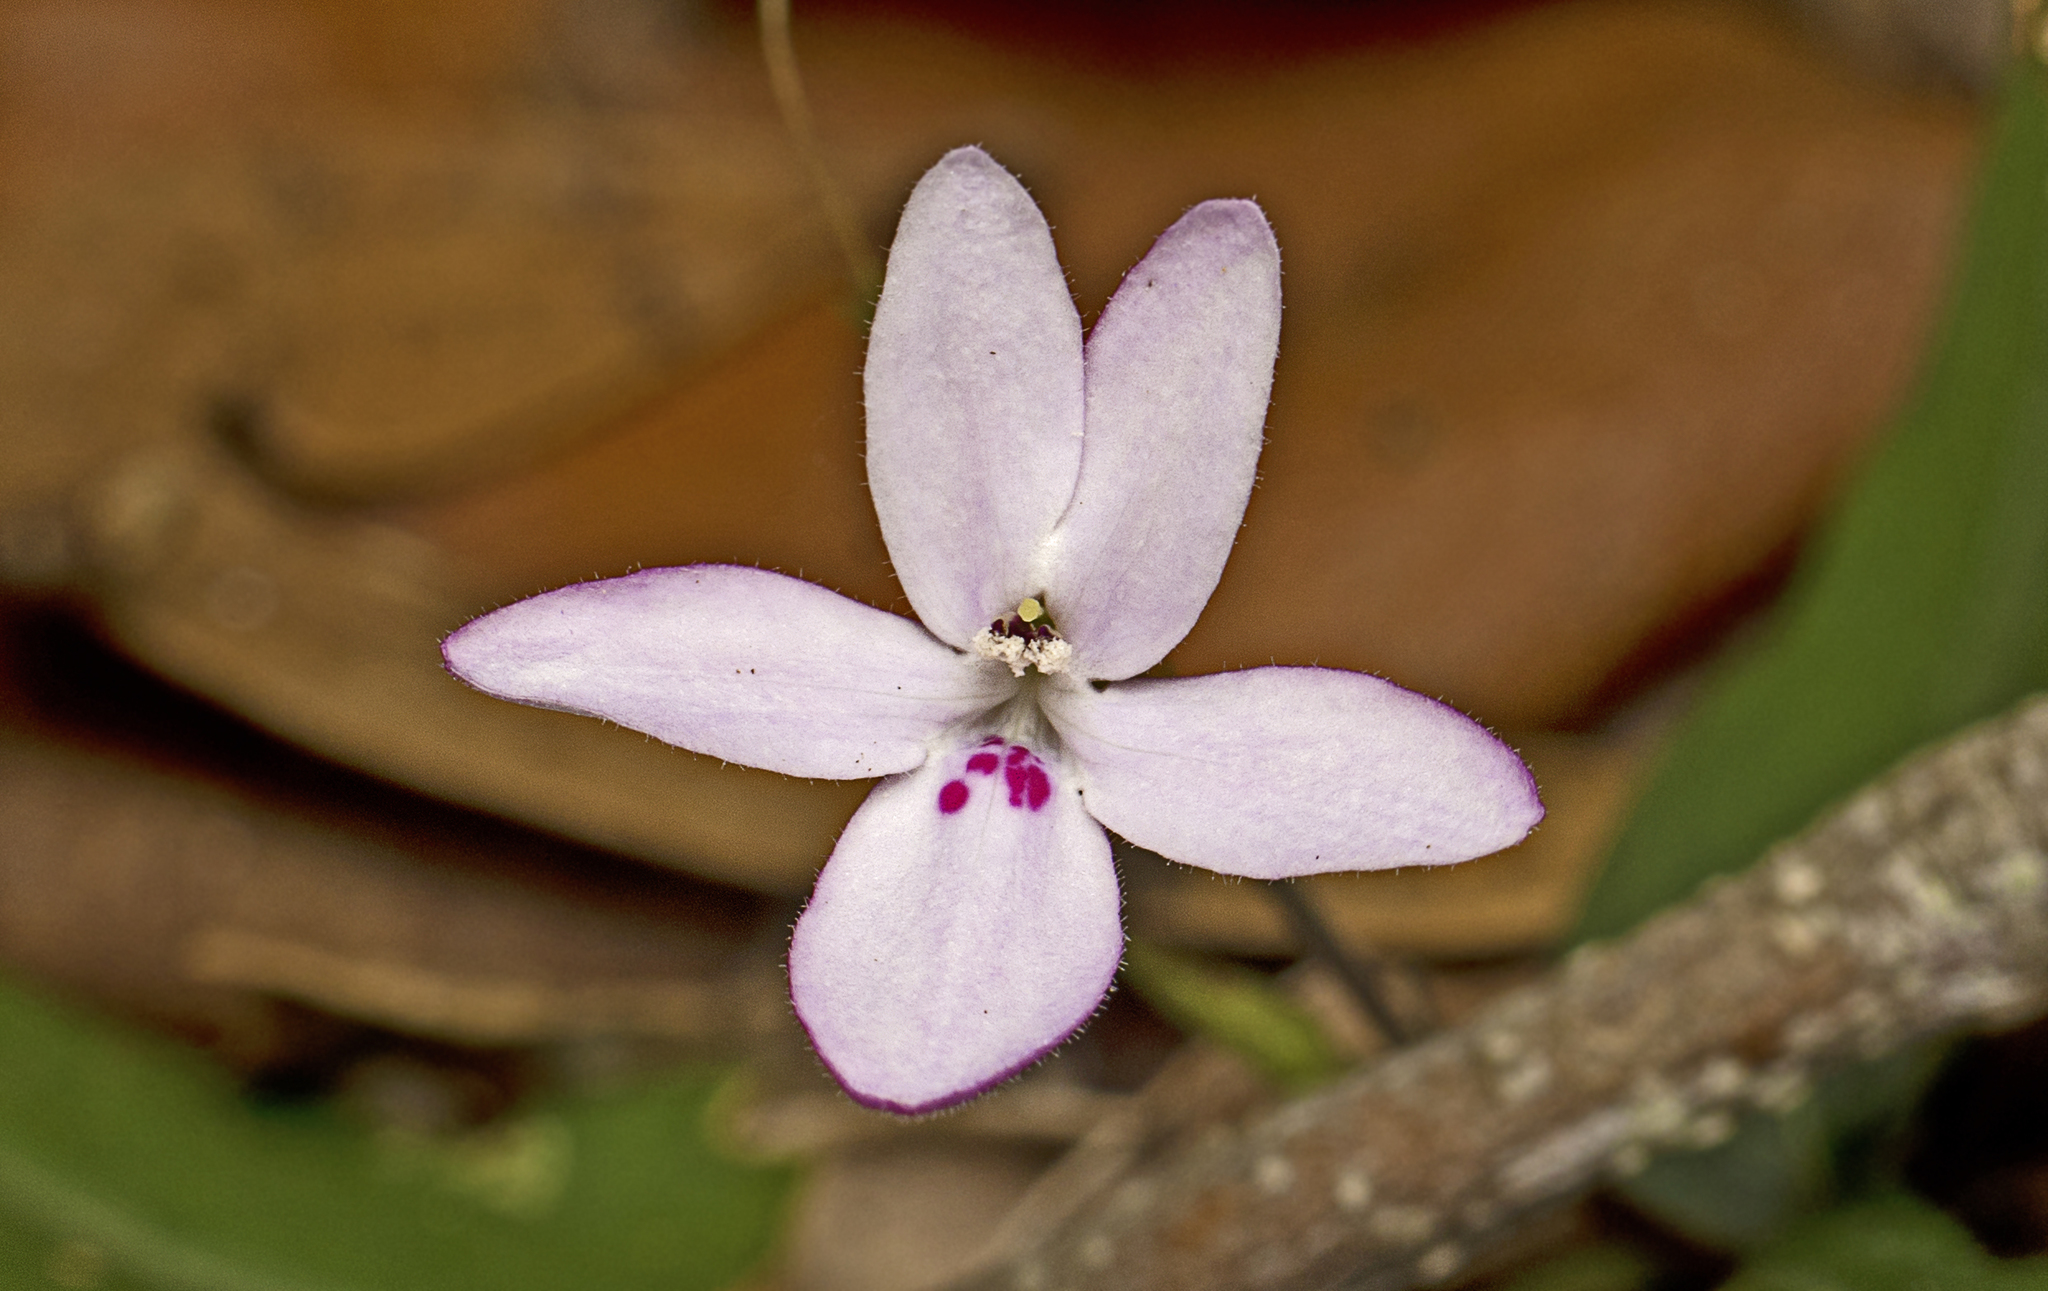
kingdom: Plantae
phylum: Tracheophyta
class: Magnoliopsida
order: Lamiales
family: Acanthaceae
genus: Pseuderanthemum
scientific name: Pseuderanthemum variabile
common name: Night and afternoon
